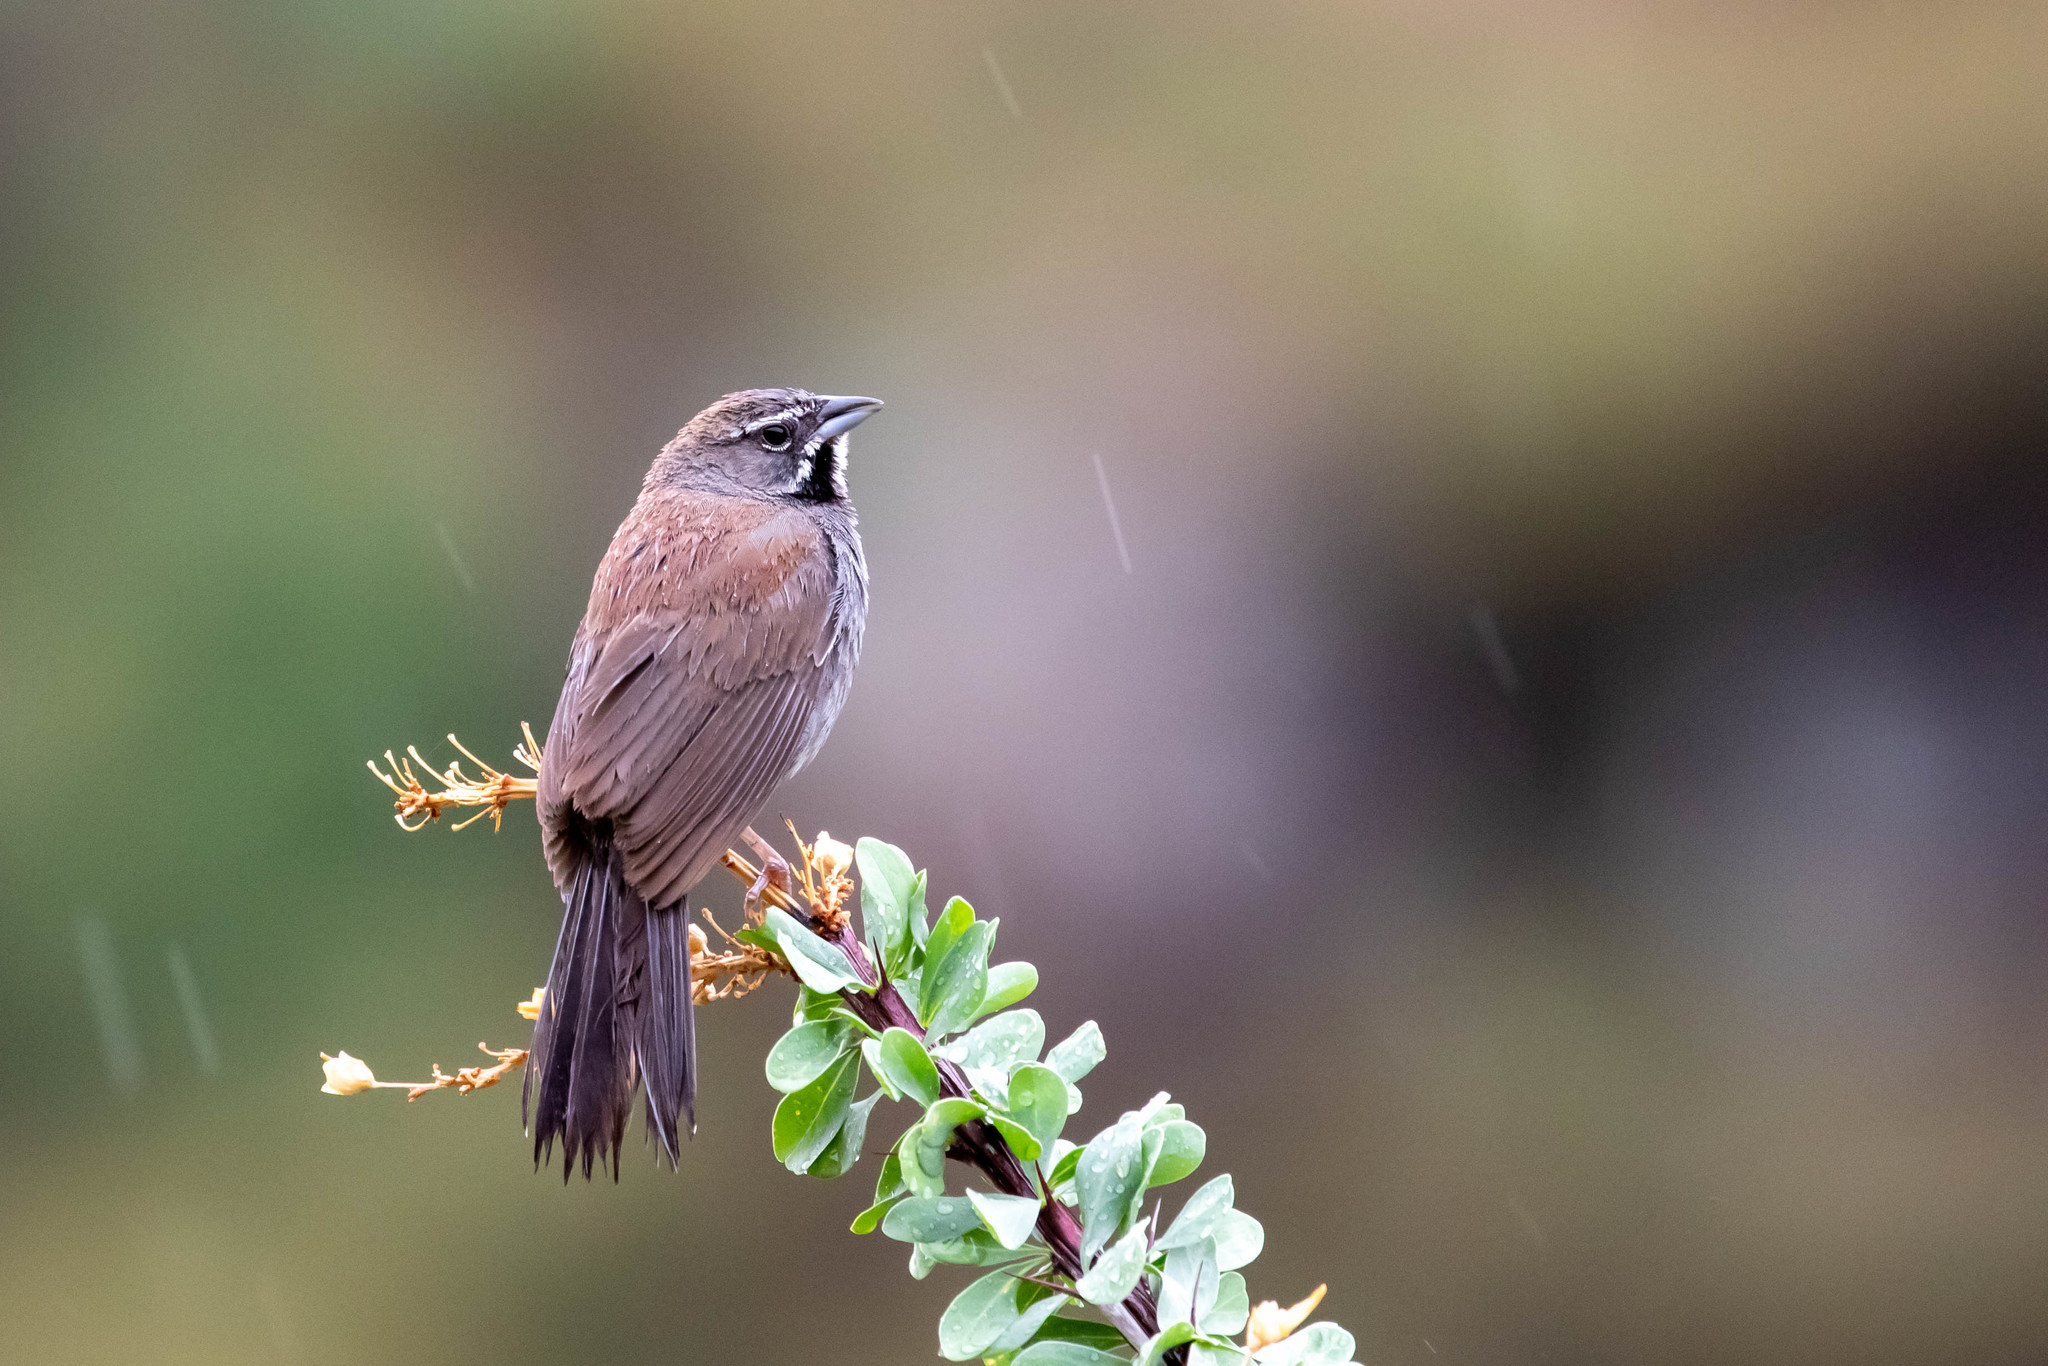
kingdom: Animalia
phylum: Chordata
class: Aves
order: Passeriformes
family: Passerellidae
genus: Amphispizopsis
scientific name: Amphispizopsis quinquestriata
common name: Five-striped sparrow
